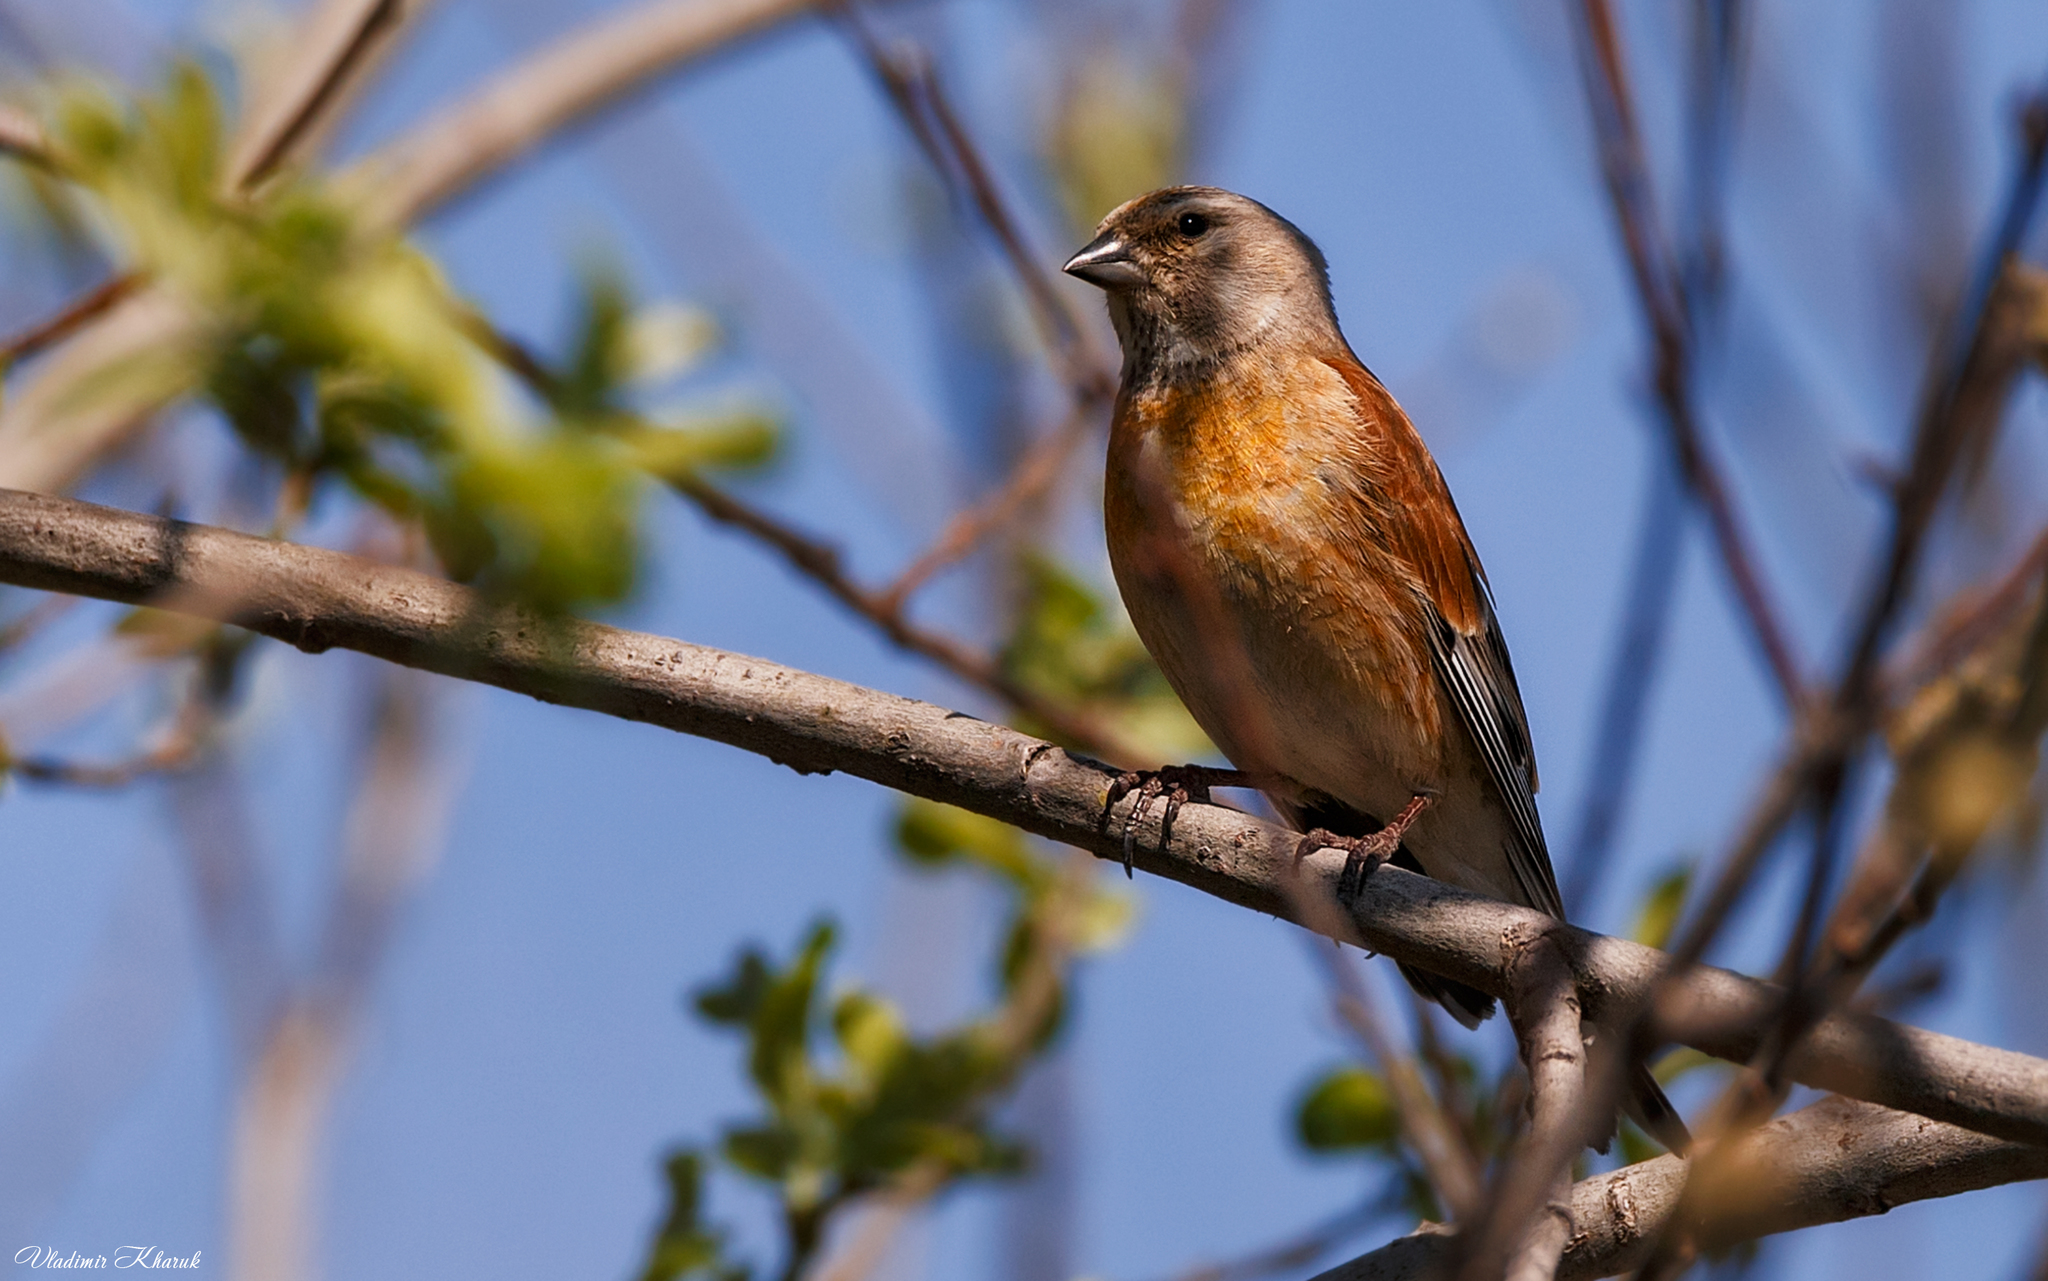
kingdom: Animalia
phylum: Chordata
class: Aves
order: Passeriformes
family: Fringillidae
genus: Linaria
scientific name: Linaria cannabina
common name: Common linnet
